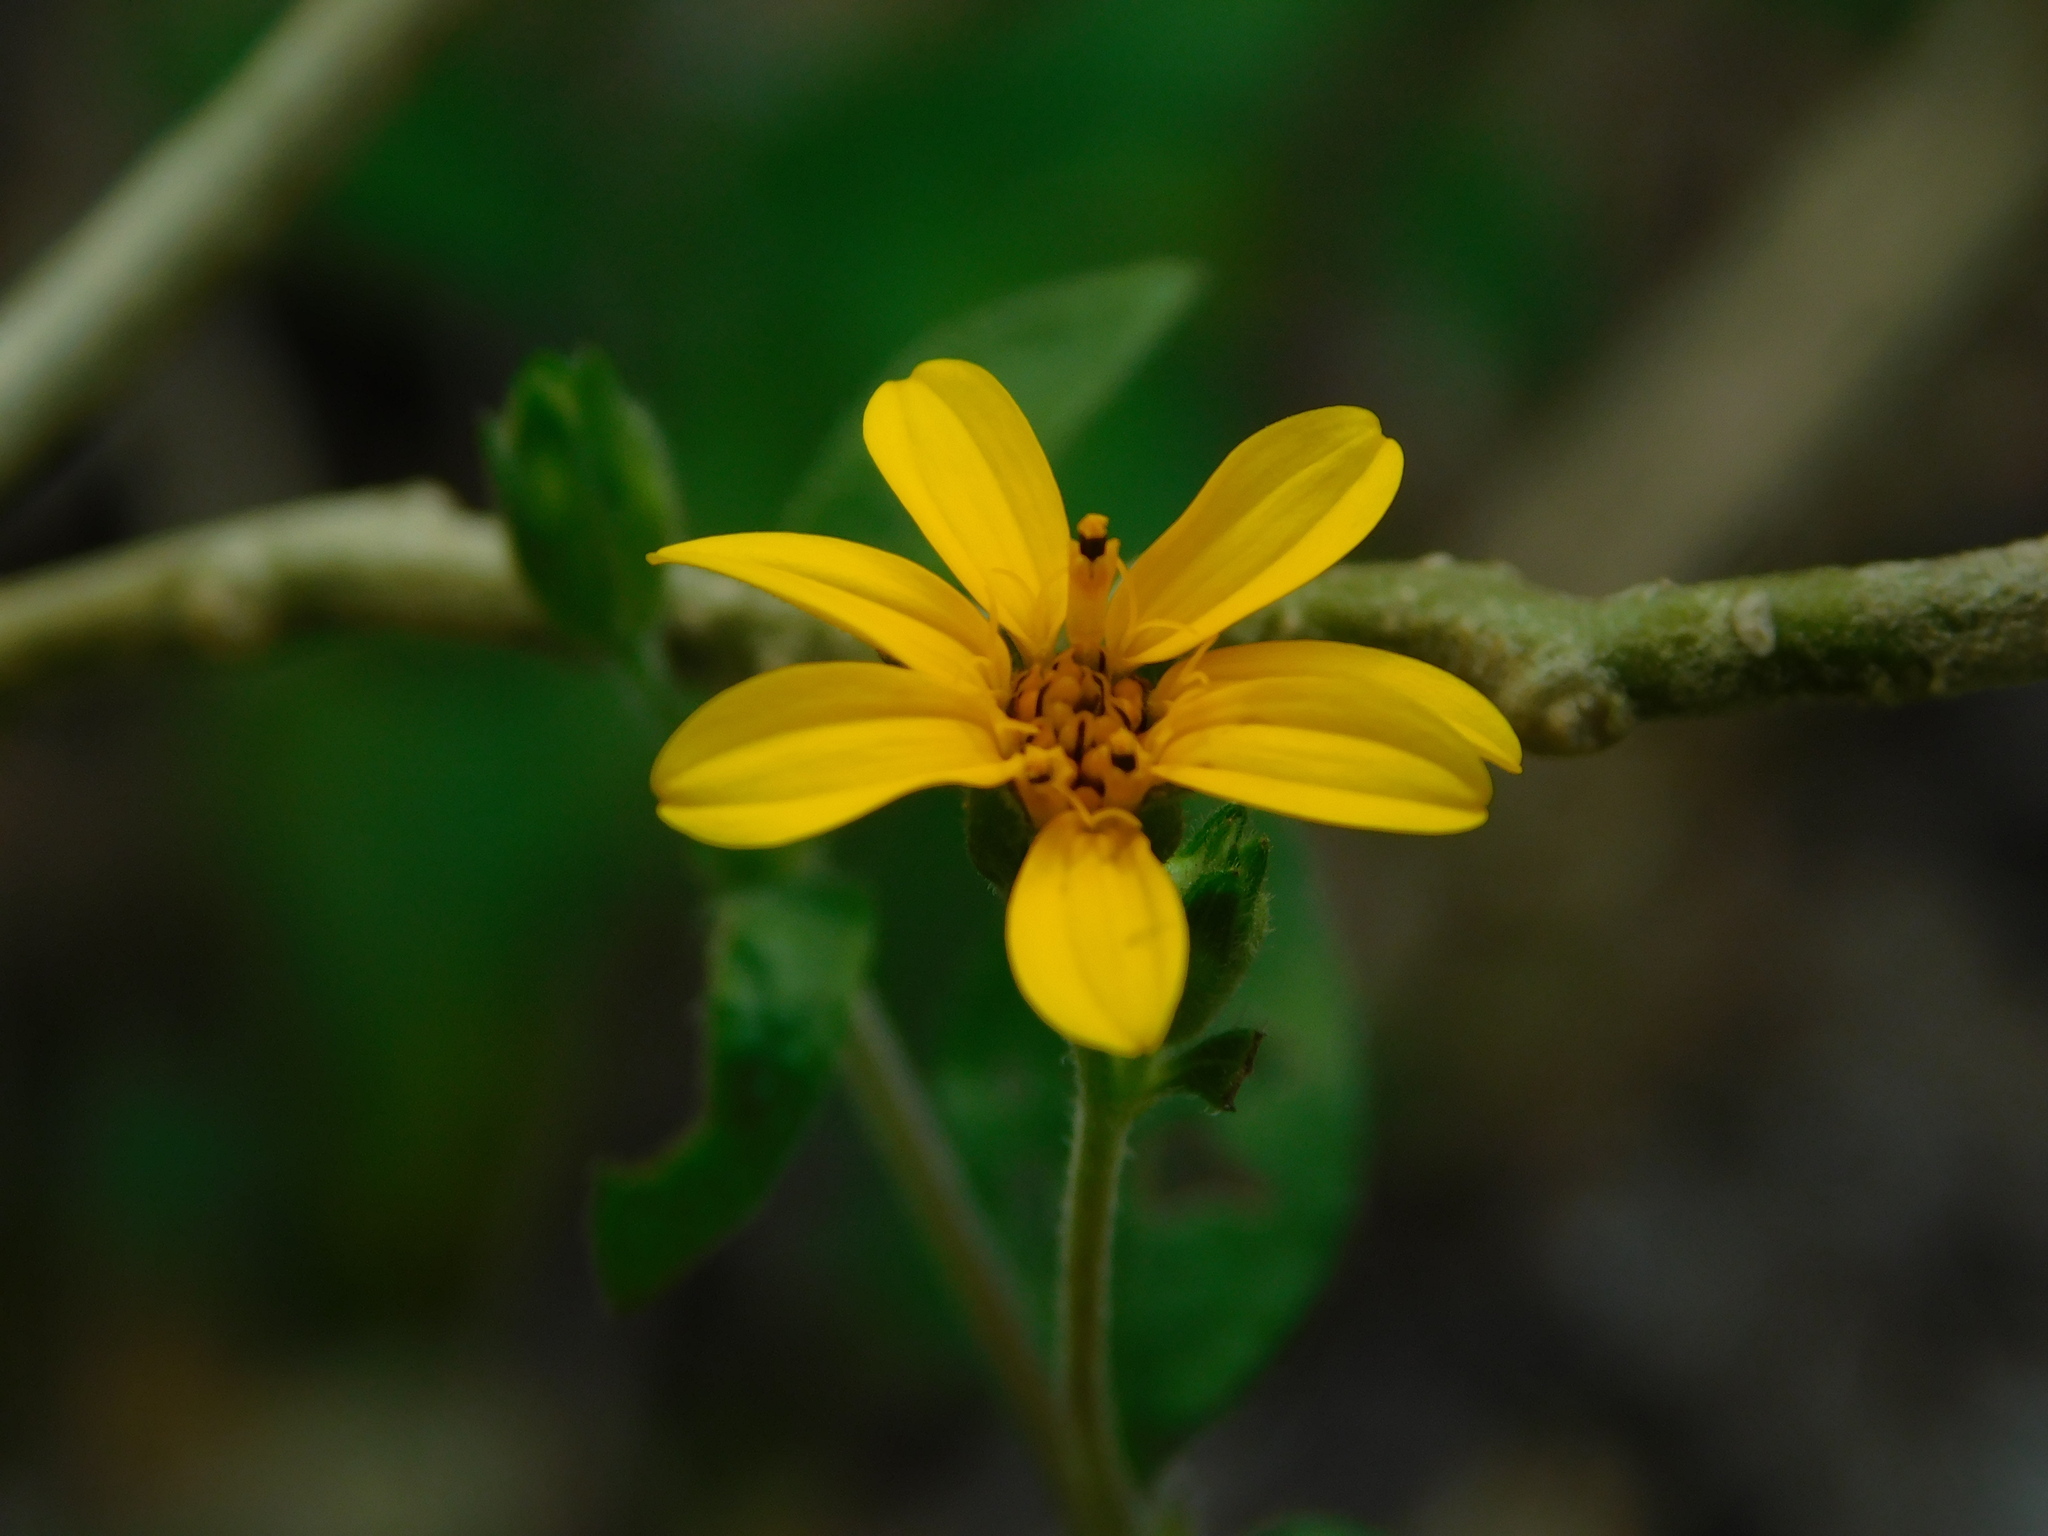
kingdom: Plantae
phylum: Tracheophyta
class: Magnoliopsida
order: Asterales
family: Asteraceae
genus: Wedelia
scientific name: Wedelia acapulcensis
